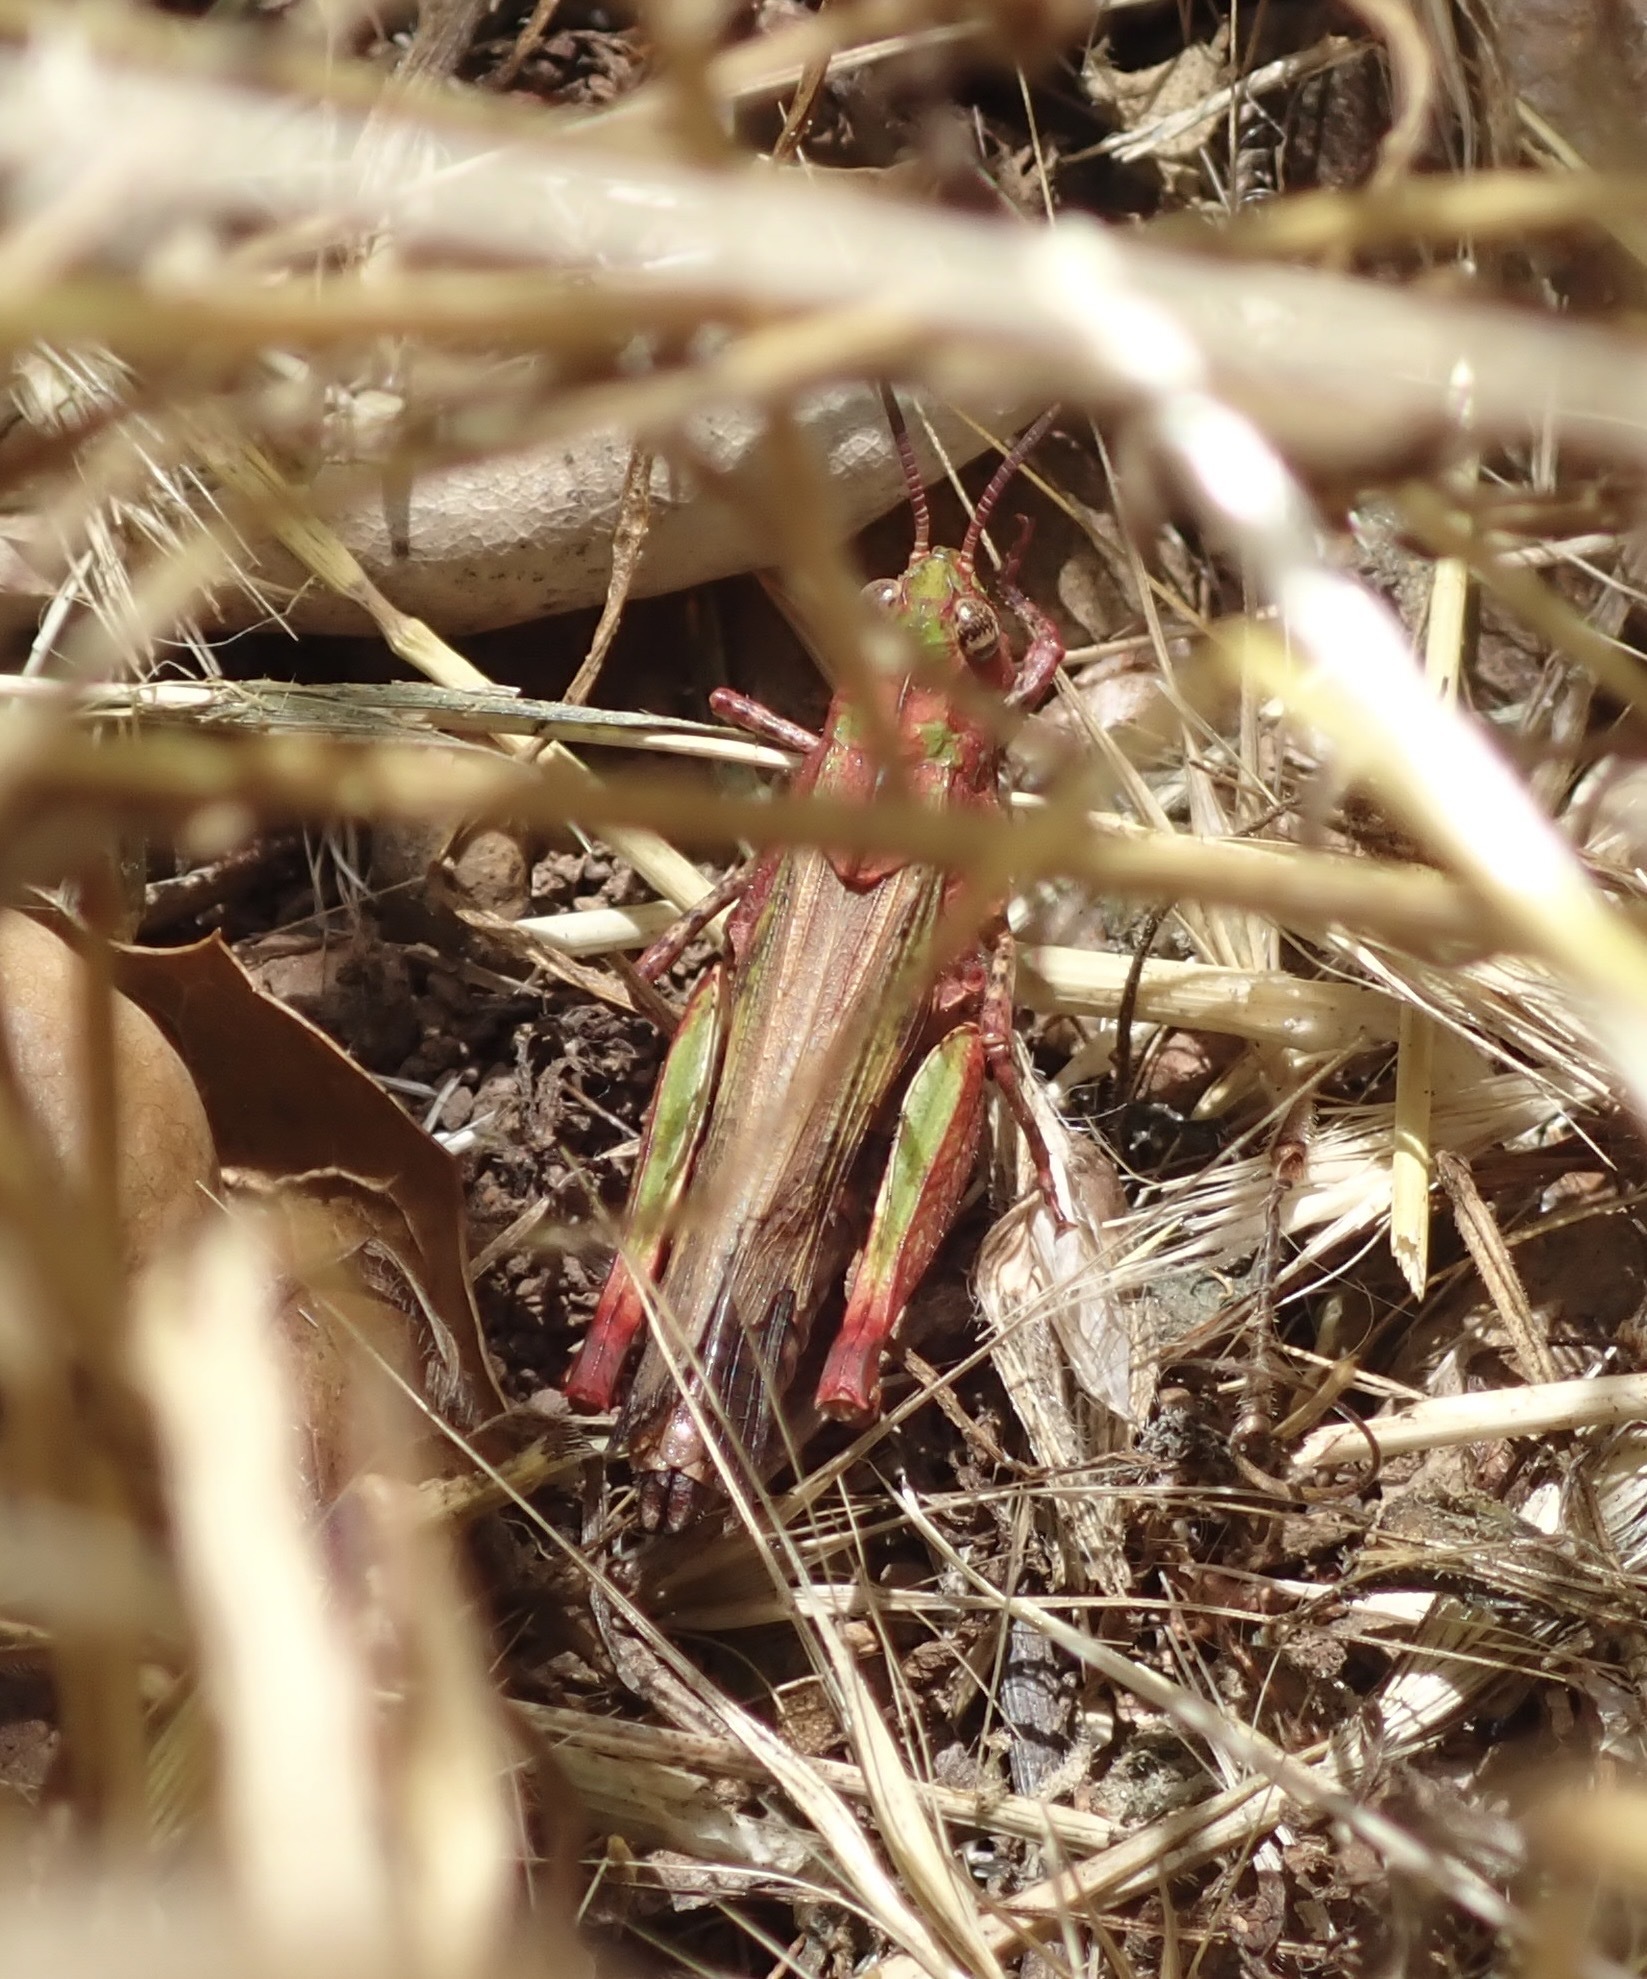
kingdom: Animalia
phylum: Arthropoda
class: Insecta
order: Orthoptera
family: Acrididae
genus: Chimarocephala
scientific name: Chimarocephala pacifica
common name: Painted meadow grasshopper
